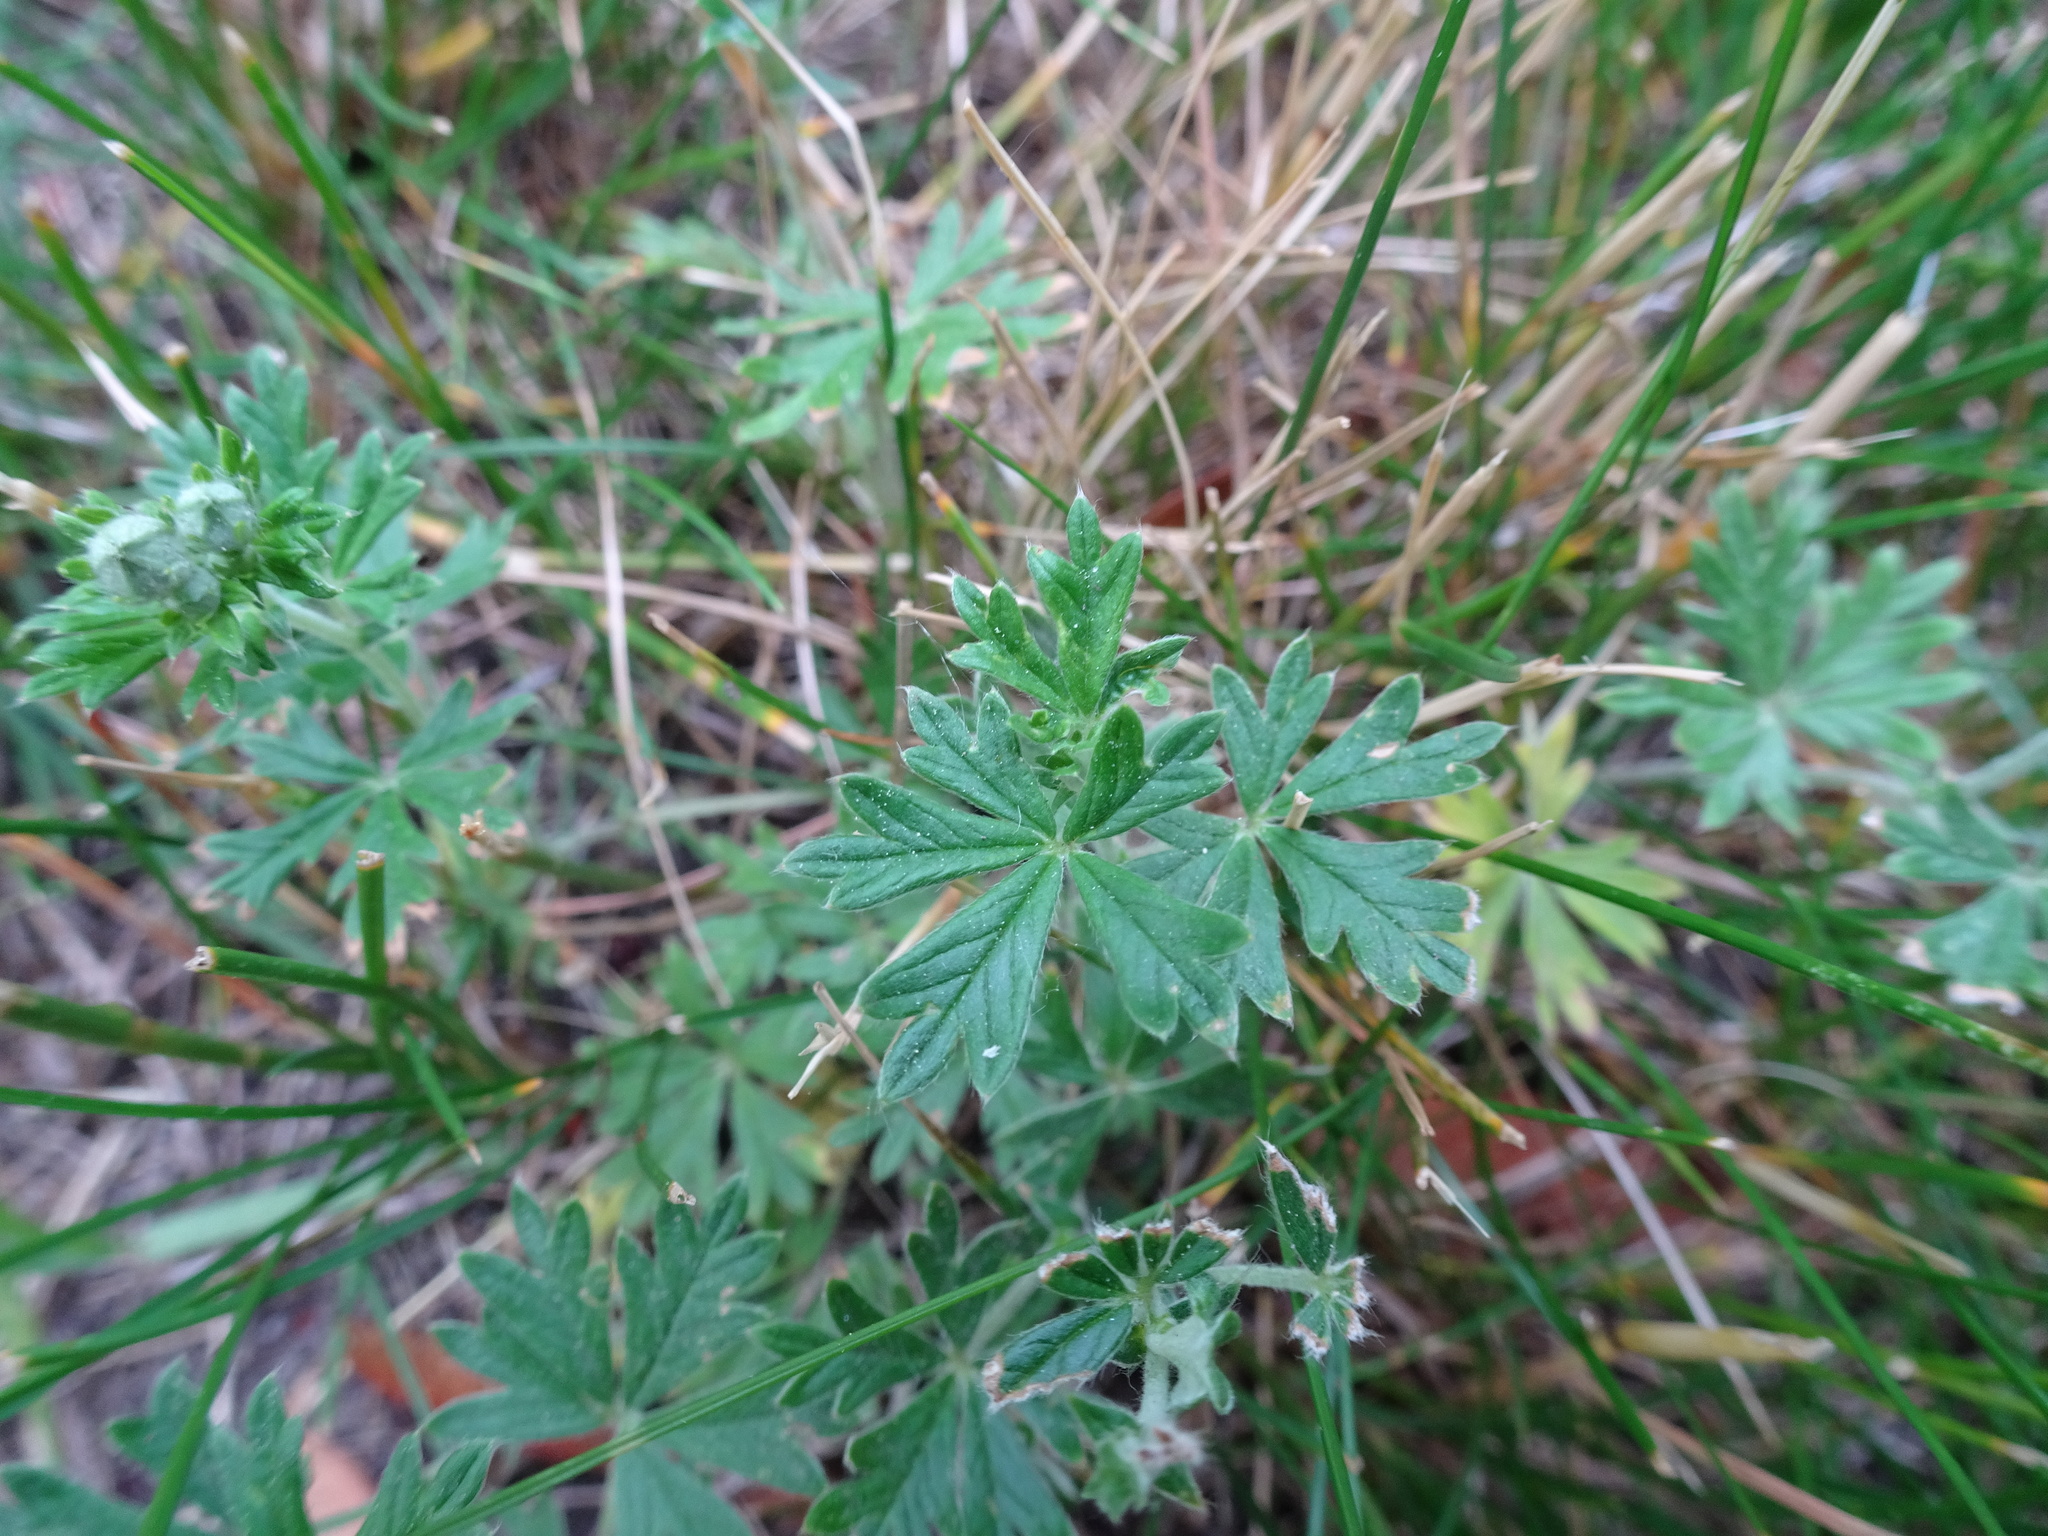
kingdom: Plantae
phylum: Tracheophyta
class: Magnoliopsida
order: Rosales
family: Rosaceae
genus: Potentilla
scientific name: Potentilla argentea
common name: Hoary cinquefoil
